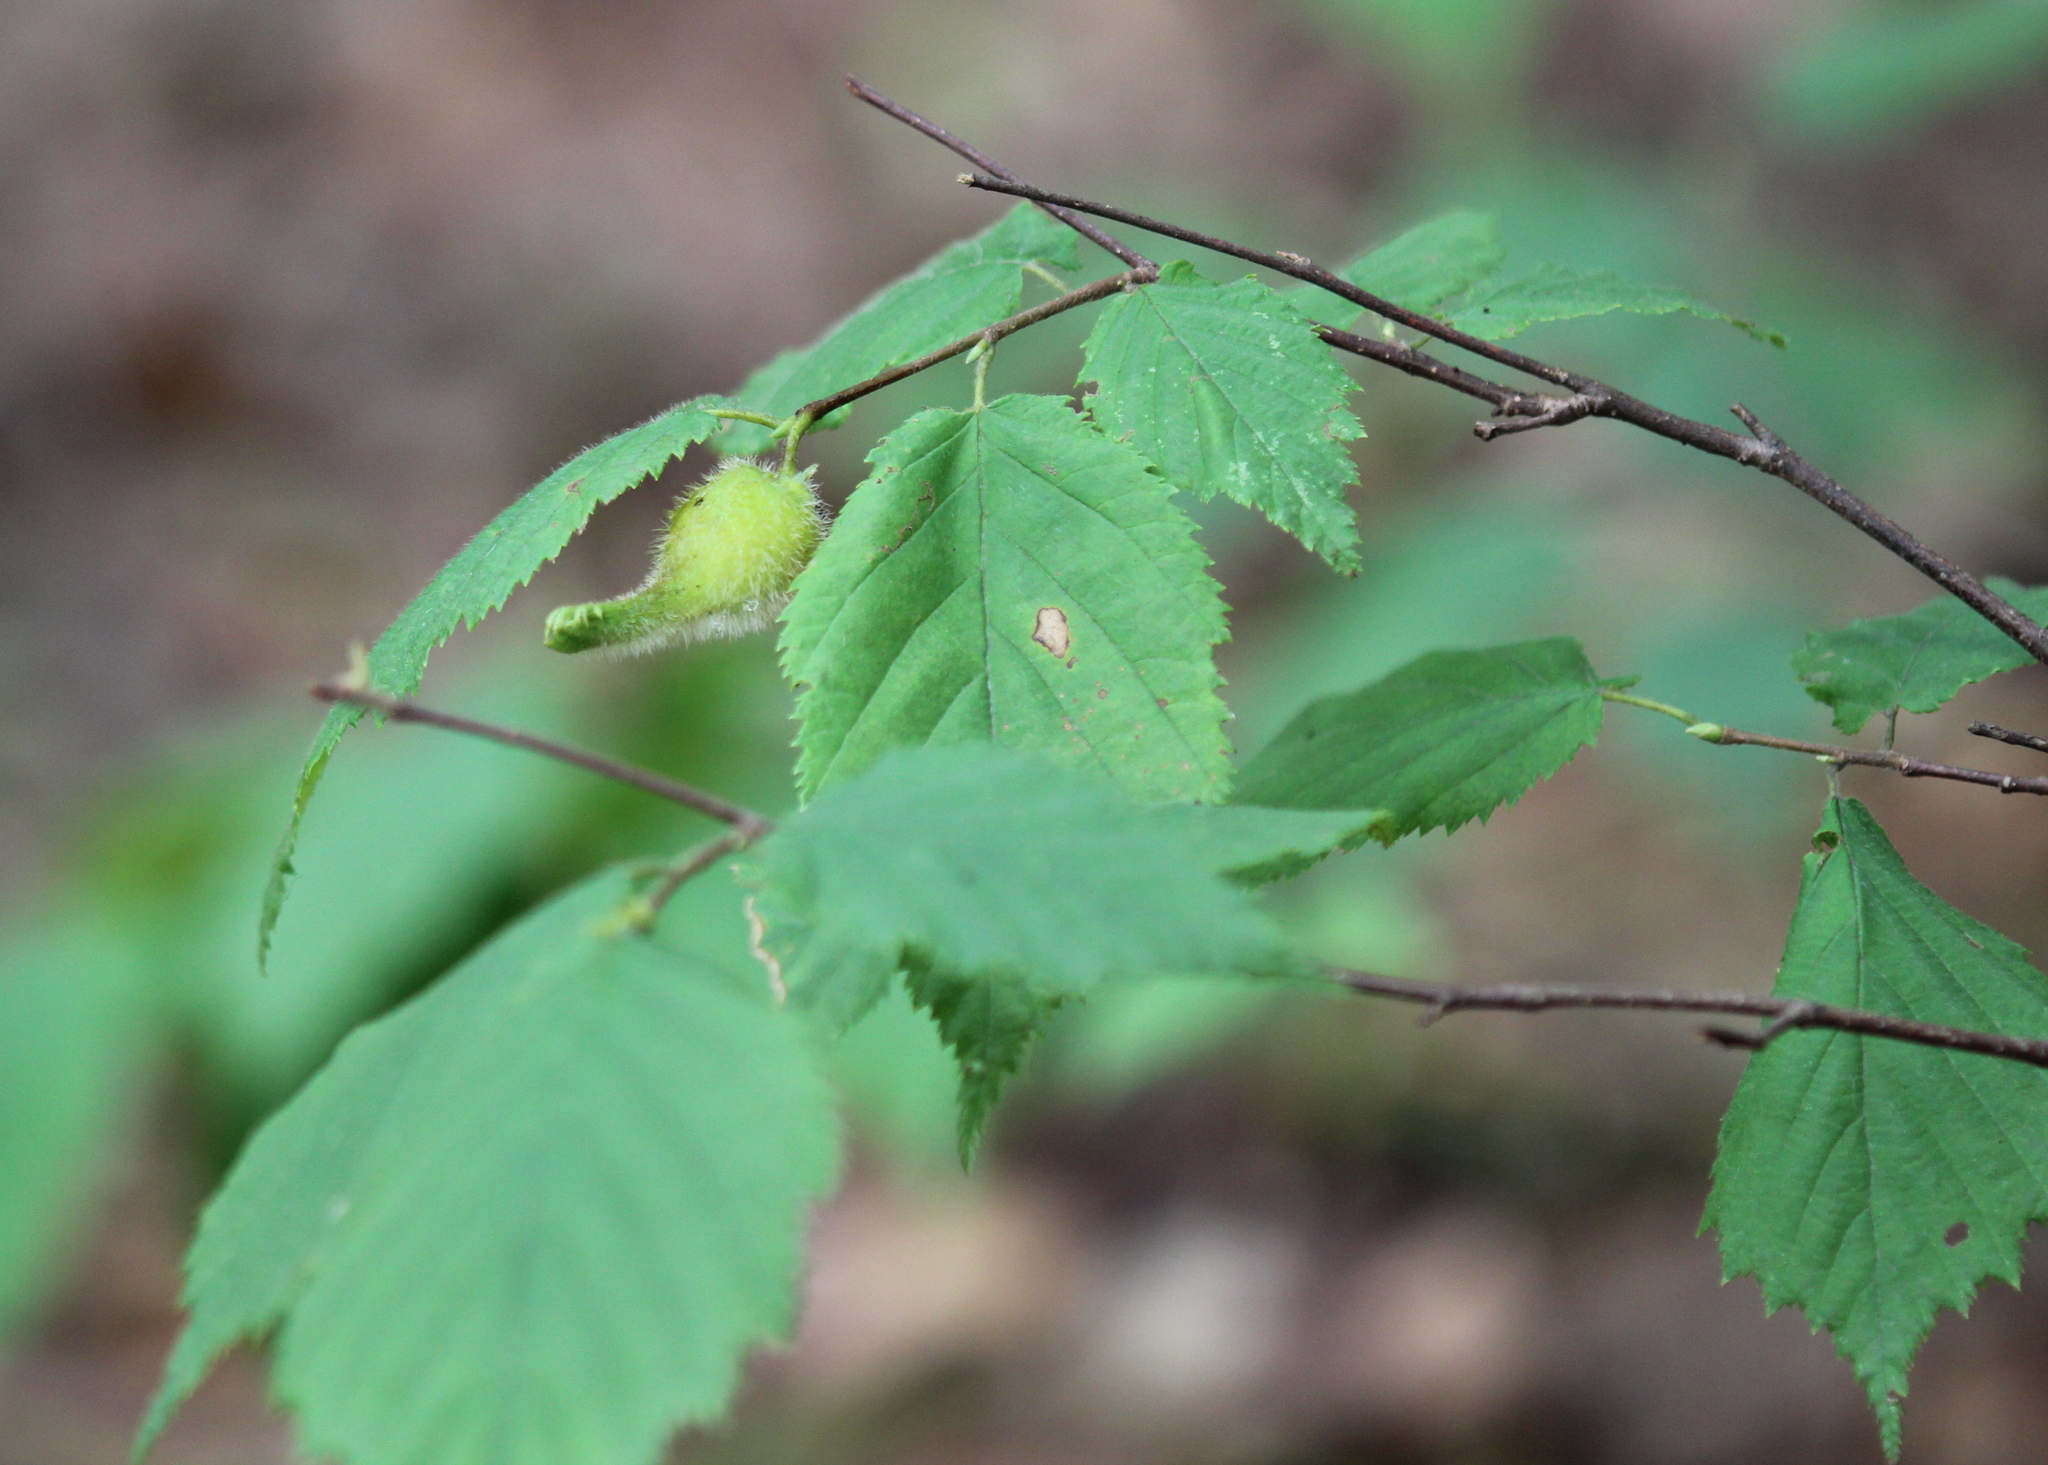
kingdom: Plantae
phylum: Tracheophyta
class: Magnoliopsida
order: Fagales
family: Betulaceae
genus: Corylus
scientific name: Corylus cornuta
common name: Beaked hazel
